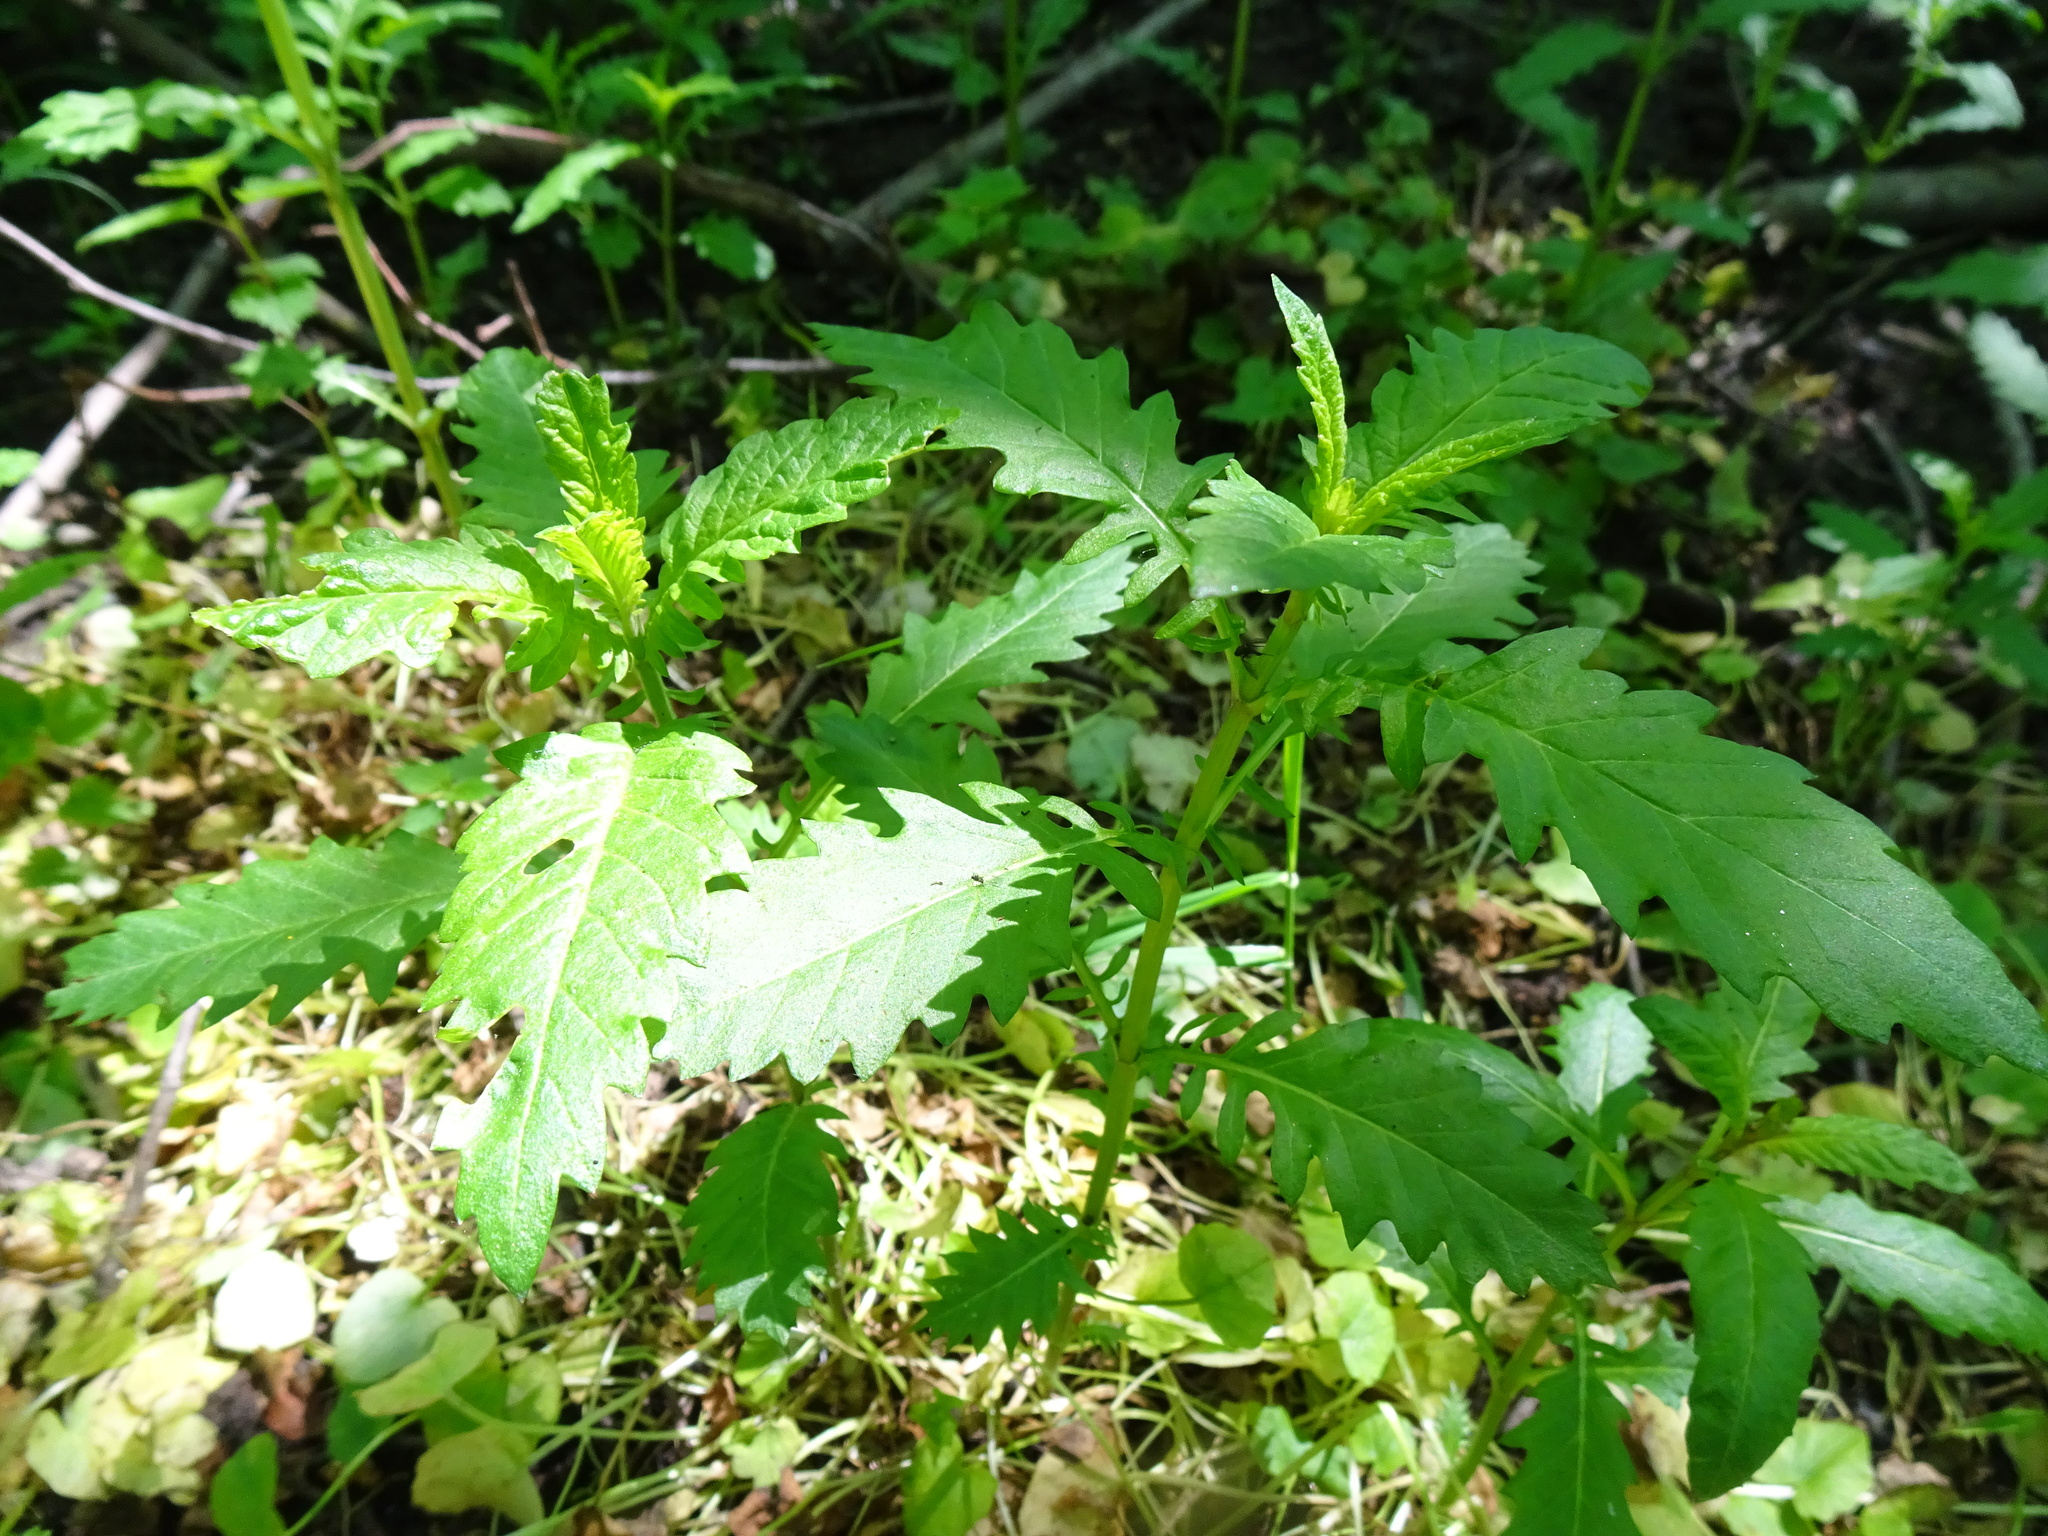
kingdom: Plantae
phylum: Tracheophyta
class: Magnoliopsida
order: Lamiales
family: Lamiaceae
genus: Lycopus
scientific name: Lycopus europaeus
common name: European bugleweed
